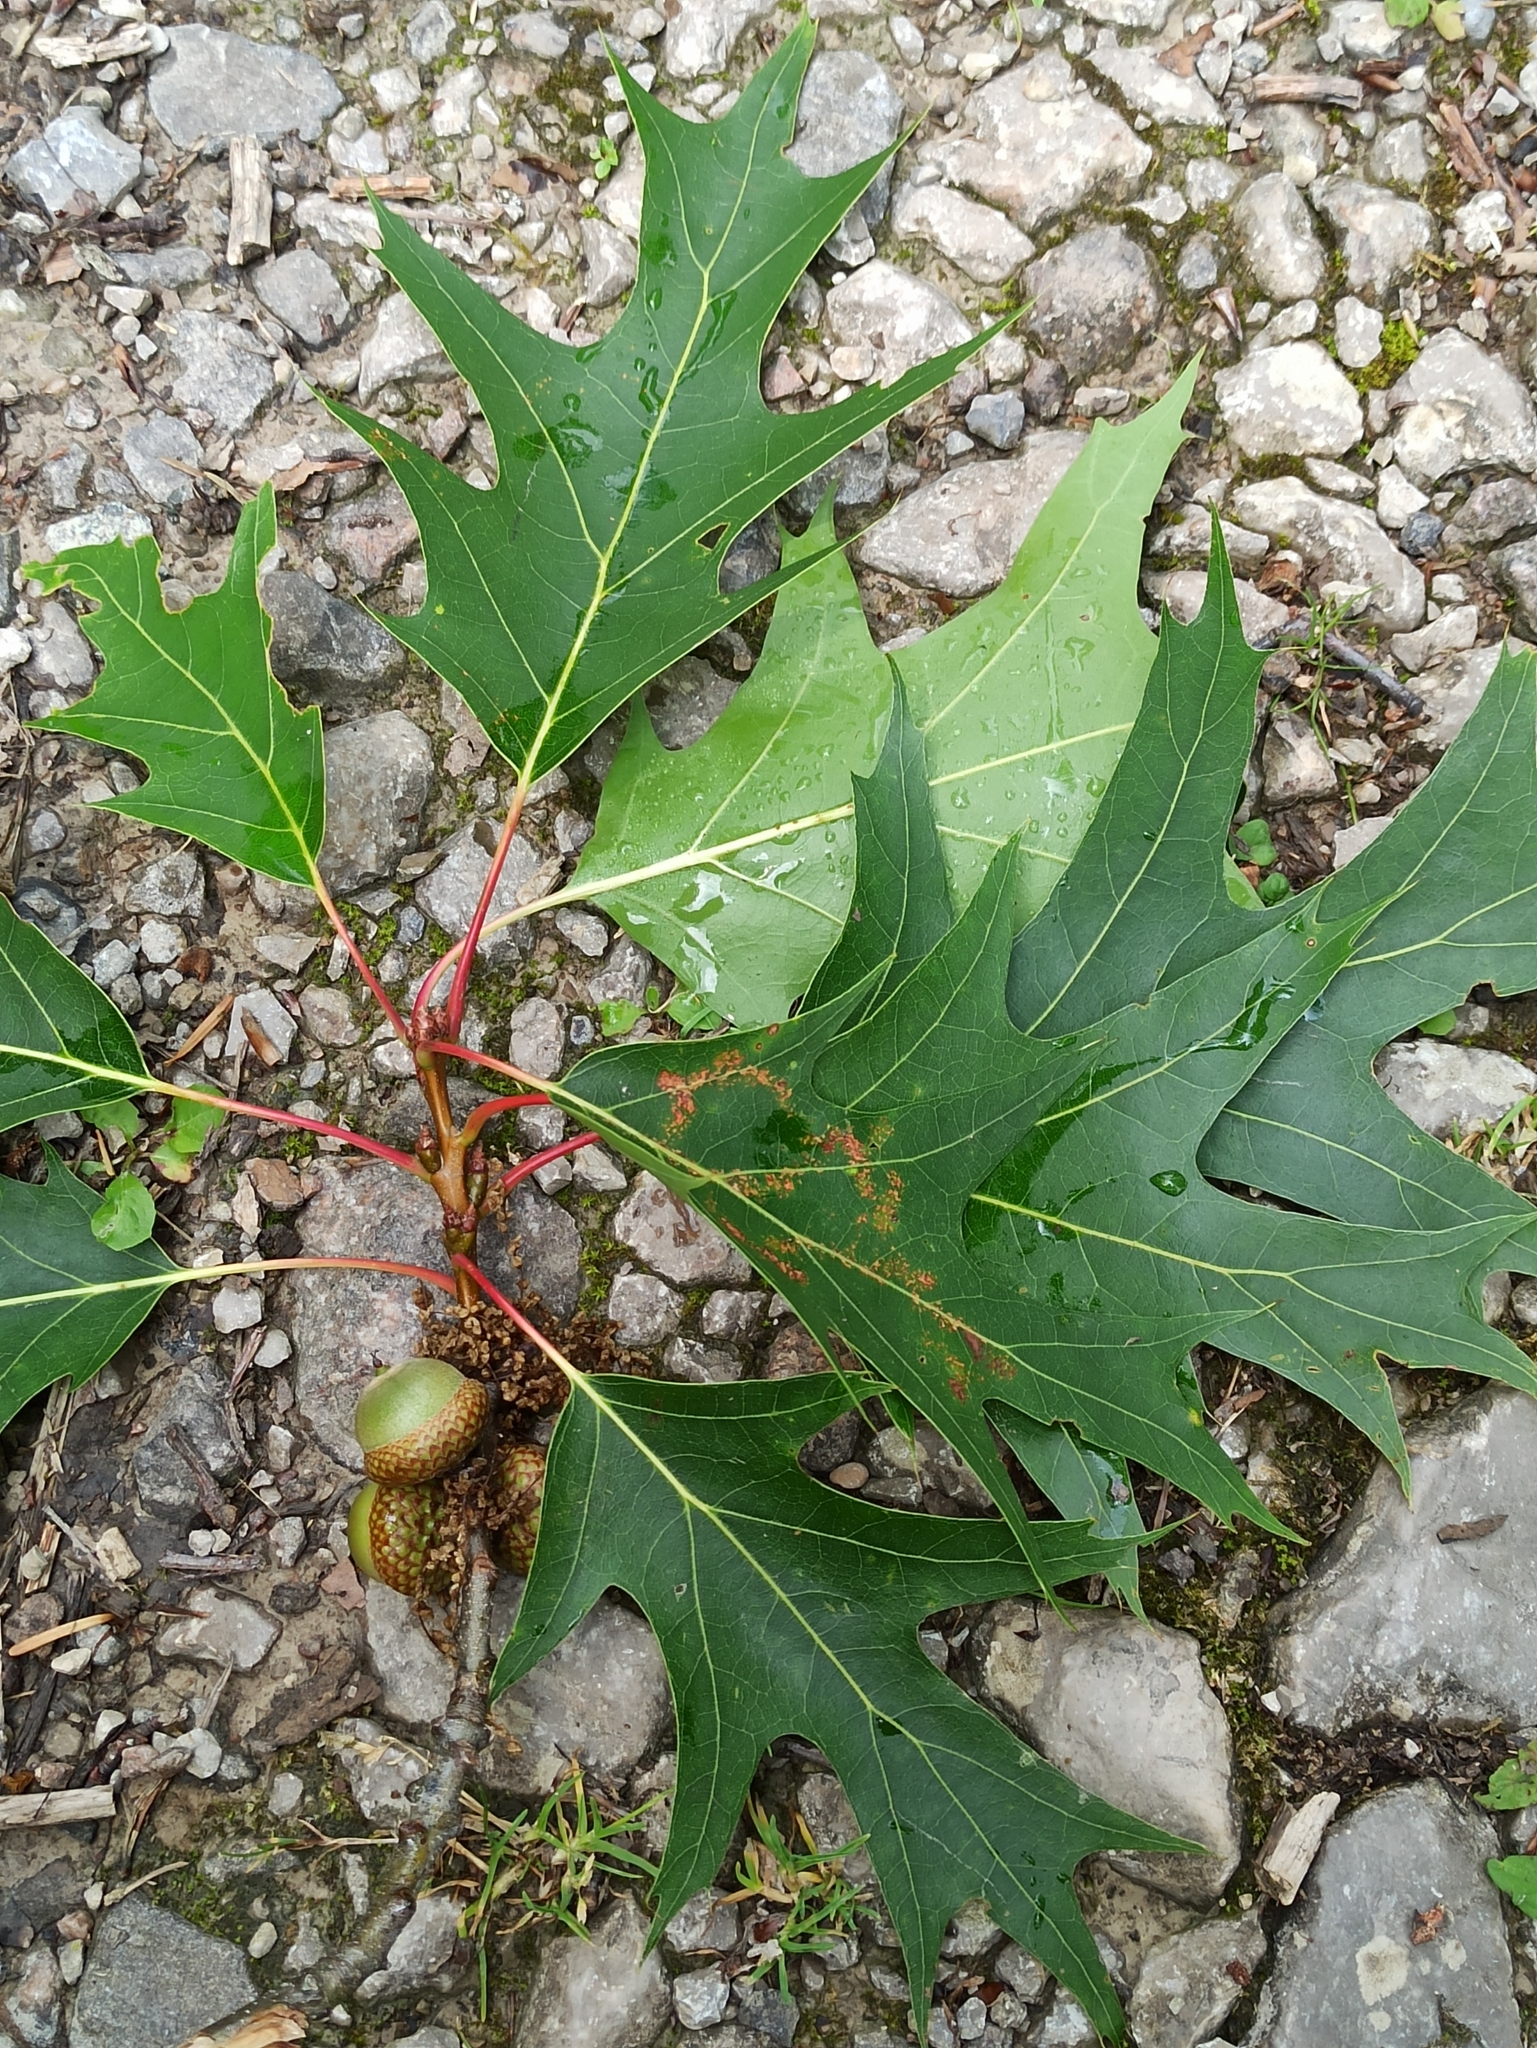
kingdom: Plantae
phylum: Tracheophyta
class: Magnoliopsida
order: Fagales
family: Fagaceae
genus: Quercus
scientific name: Quercus rubra
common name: Red oak
